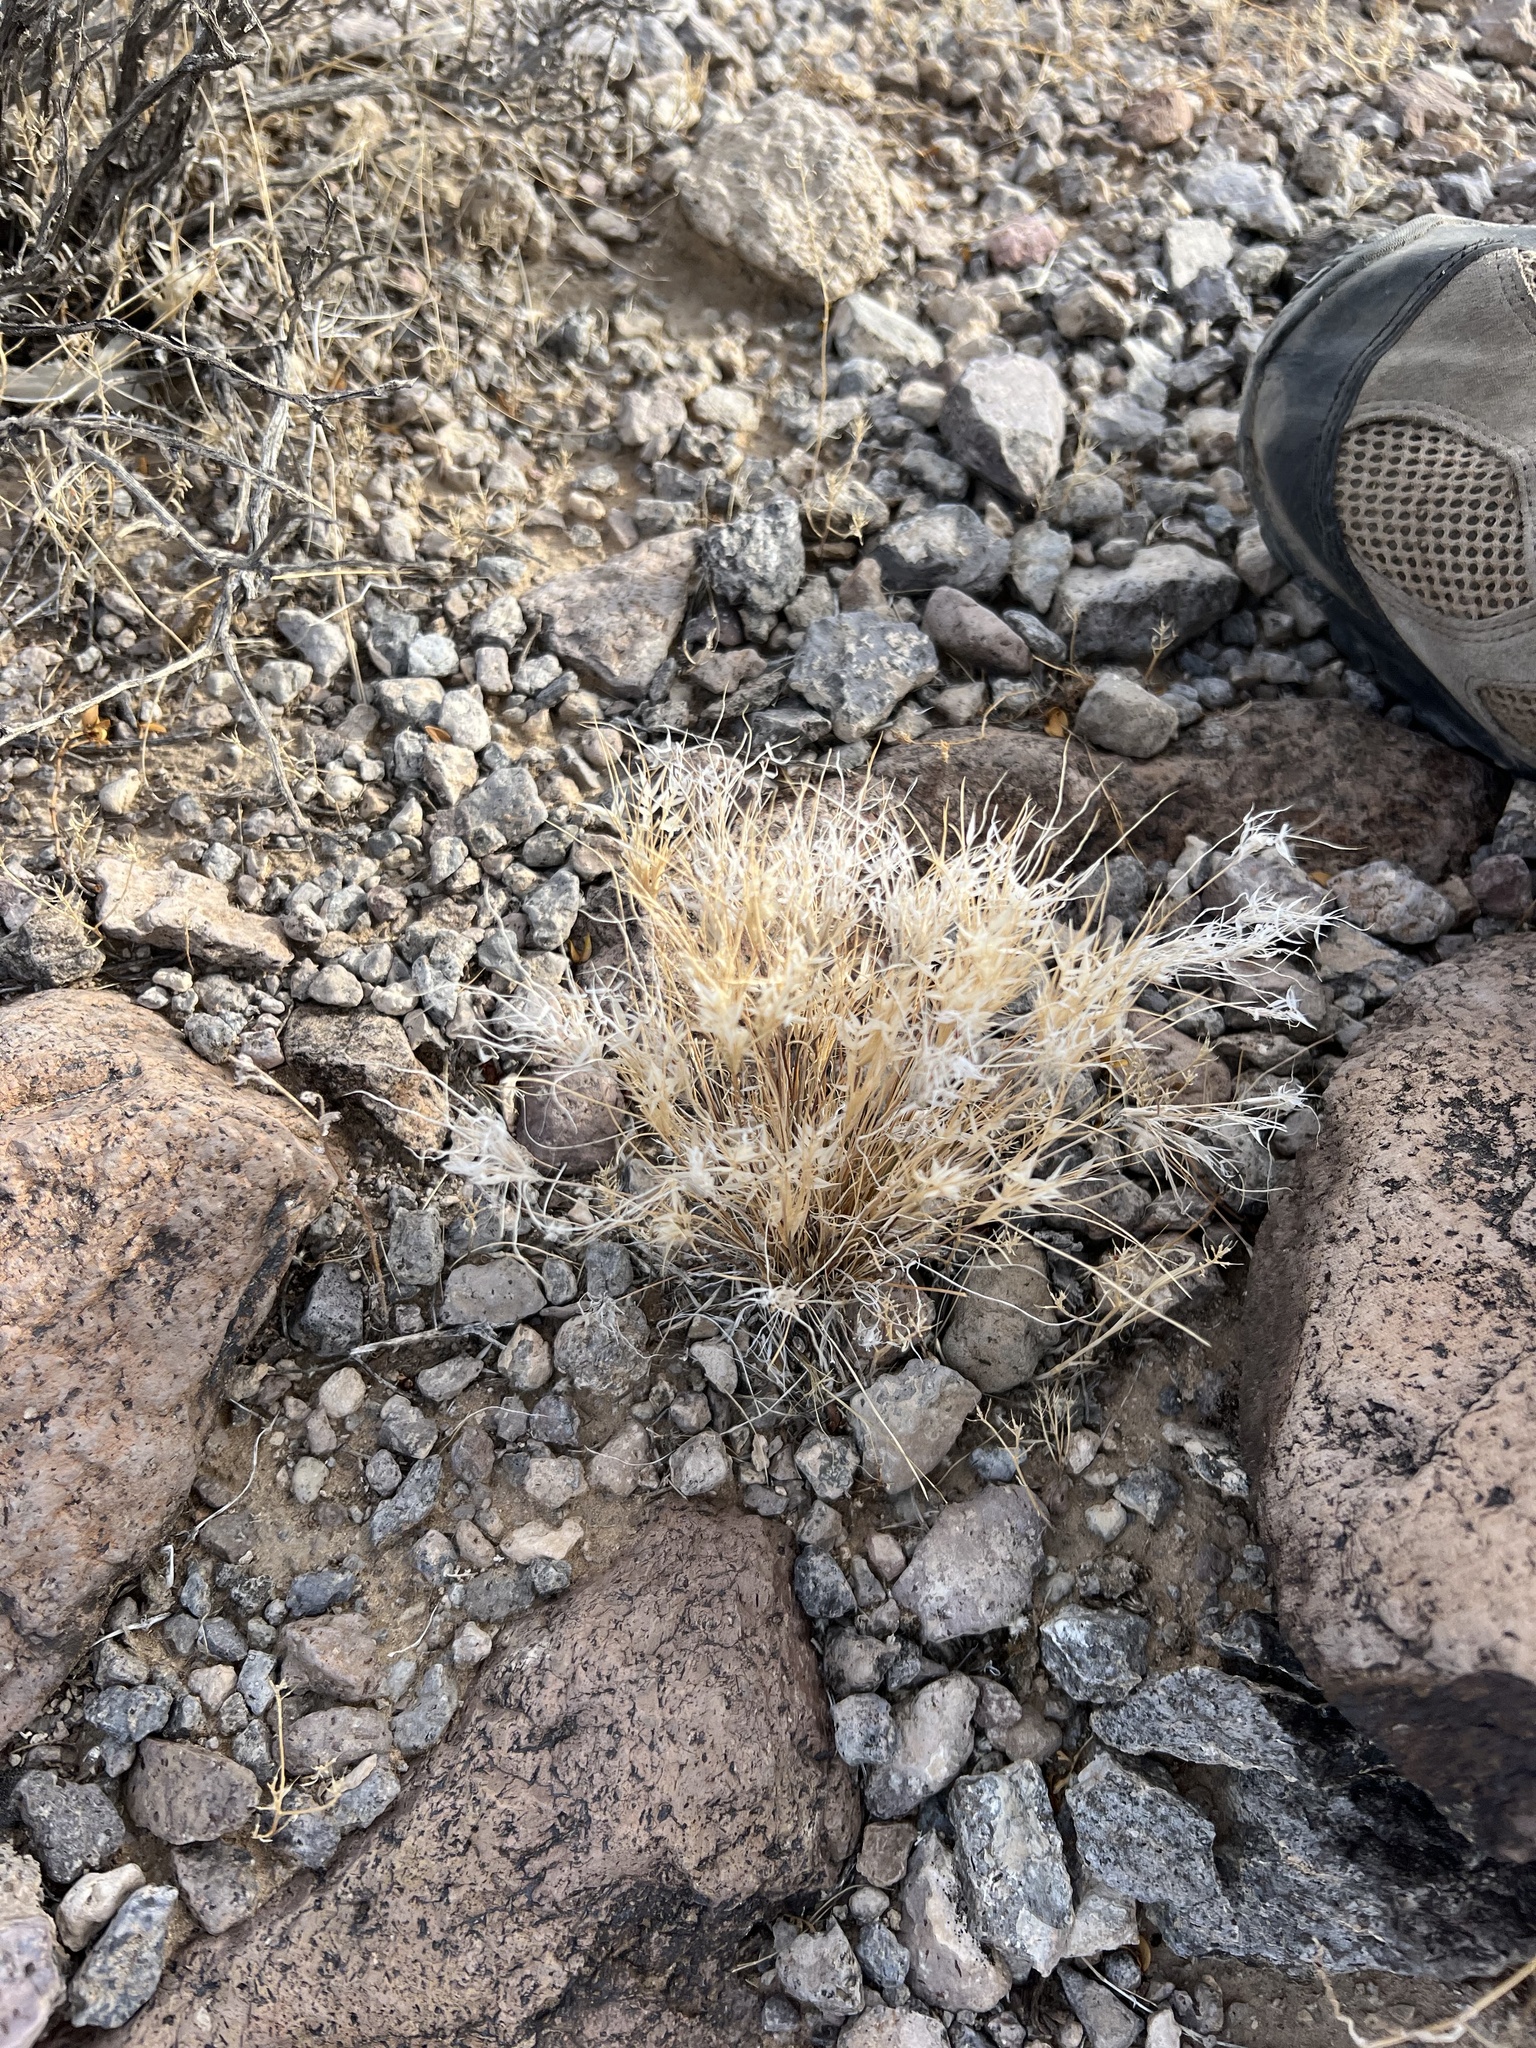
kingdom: Plantae
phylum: Tracheophyta
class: Liliopsida
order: Poales
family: Poaceae
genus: Dasyochloa
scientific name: Dasyochloa pulchella
